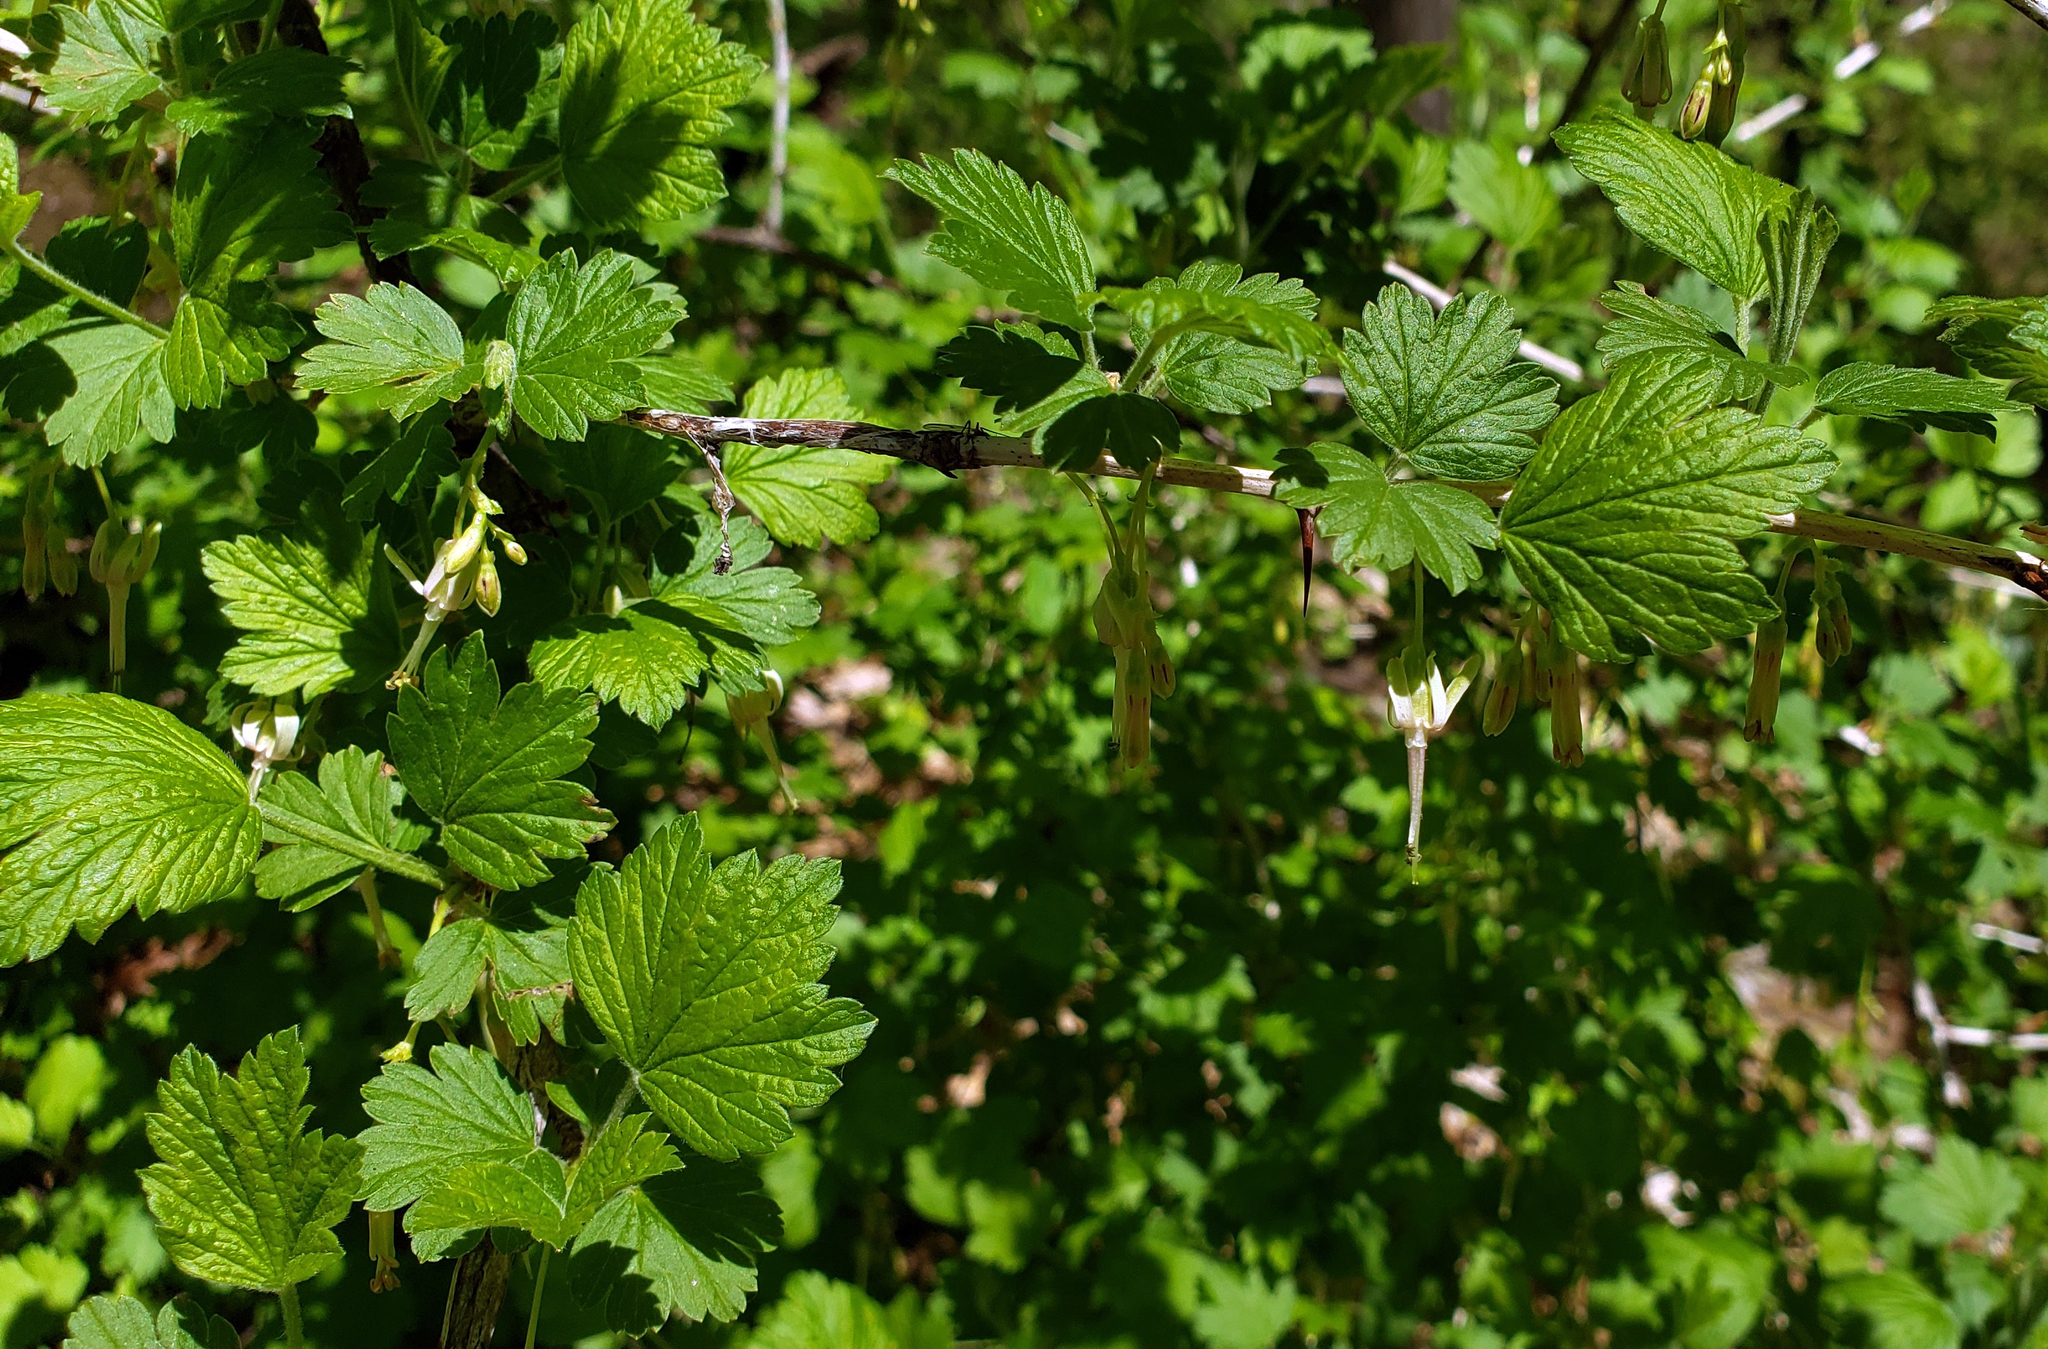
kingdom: Plantae
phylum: Tracheophyta
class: Magnoliopsida
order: Saxifragales
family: Grossulariaceae
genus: Ribes
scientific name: Ribes missouriense
